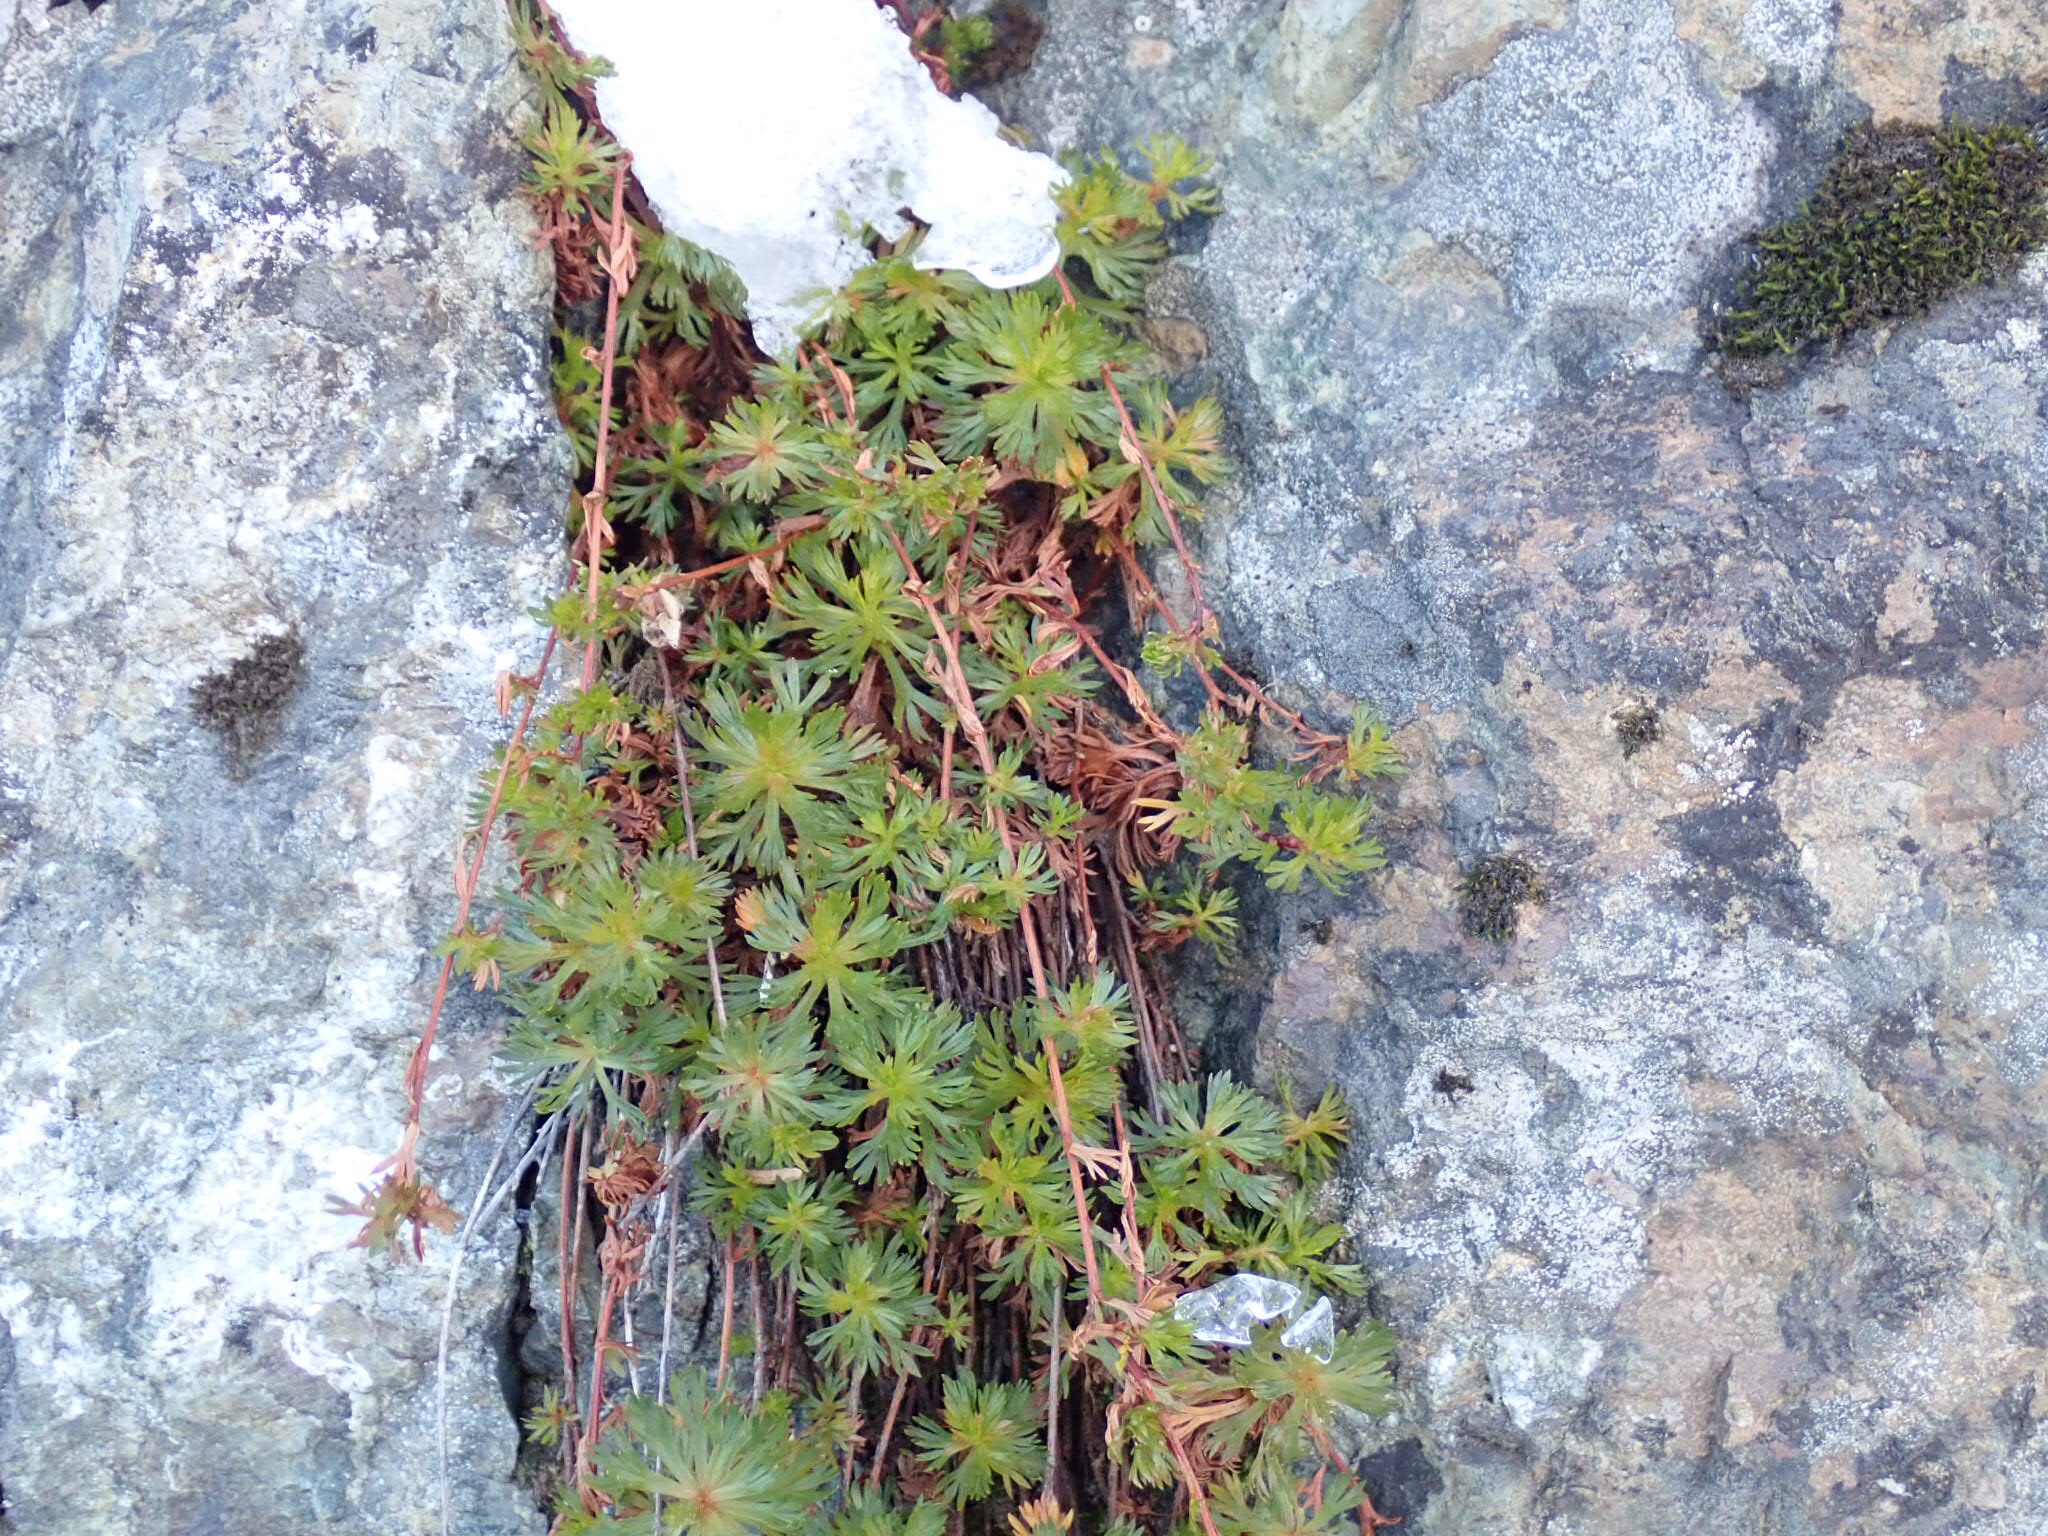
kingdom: Plantae
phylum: Tracheophyta
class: Magnoliopsida
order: Rosales
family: Rosaceae
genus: Luetkea
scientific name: Luetkea pectinata
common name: Partridgefoot
